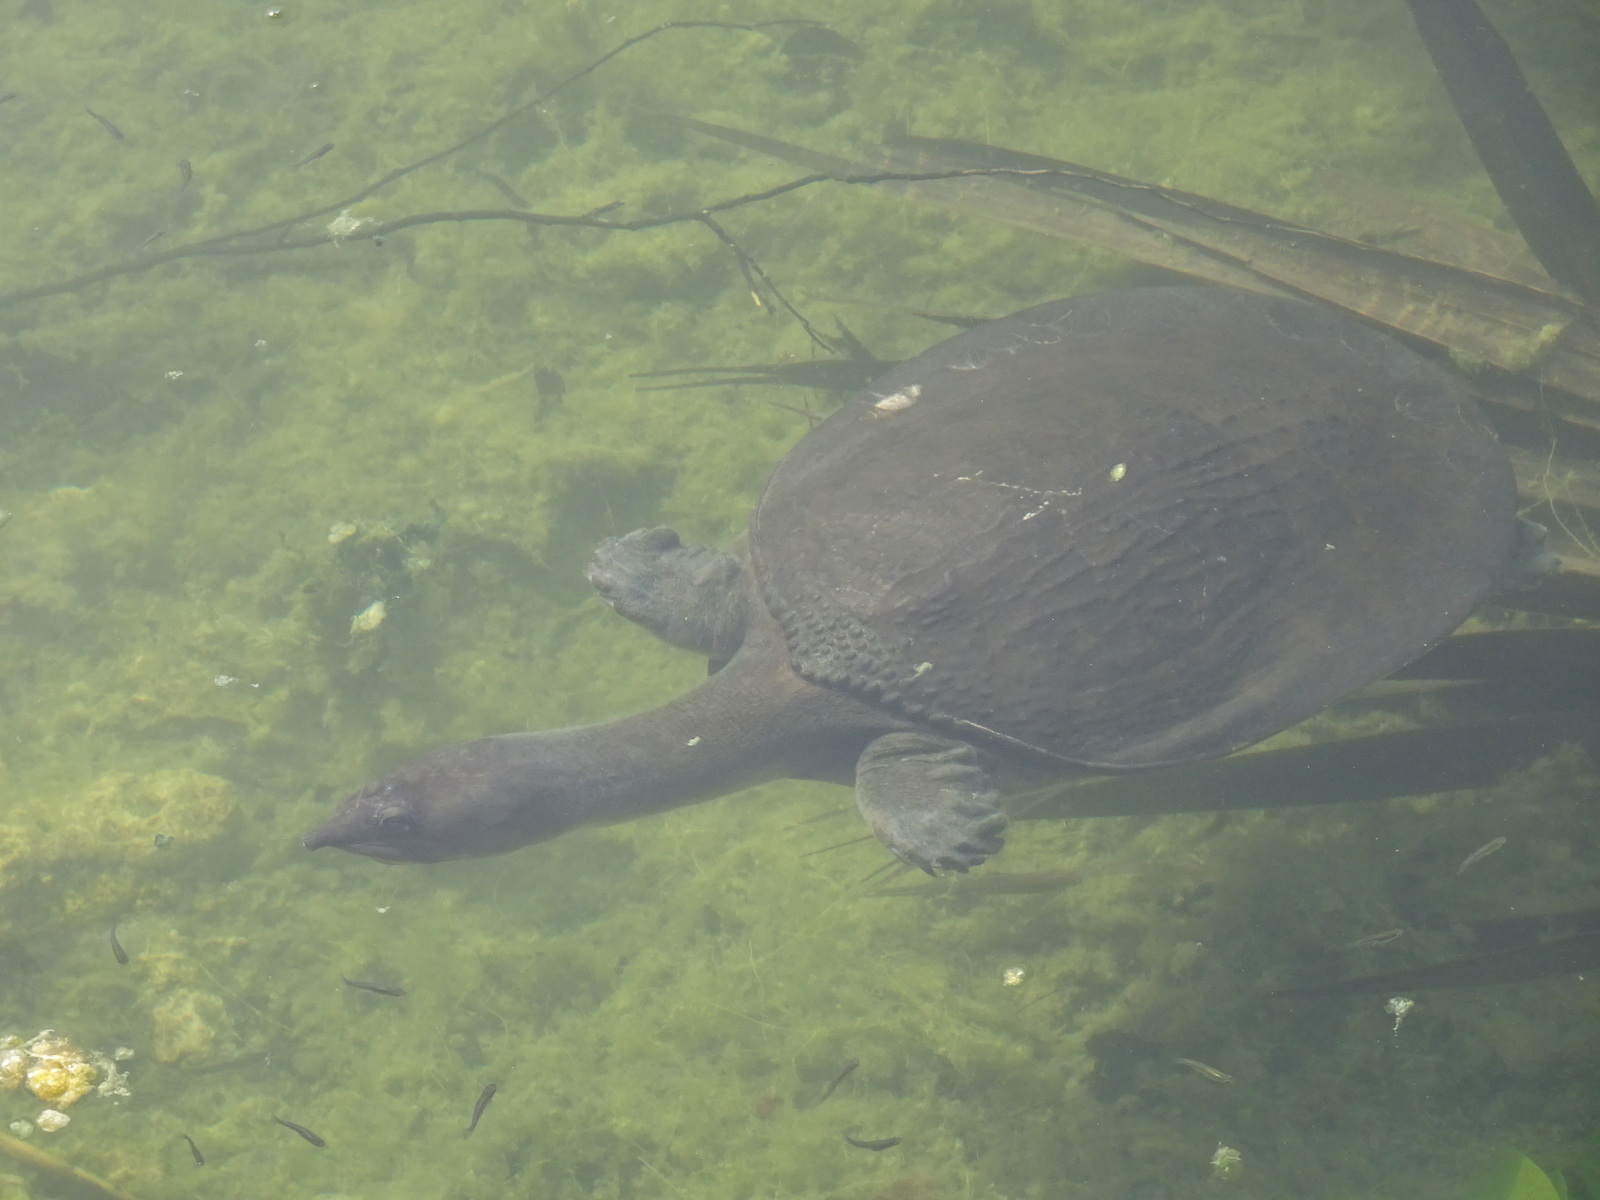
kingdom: Animalia
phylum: Chordata
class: Testudines
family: Trionychidae
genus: Apalone
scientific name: Apalone ferox
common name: Florida softshell turtle
